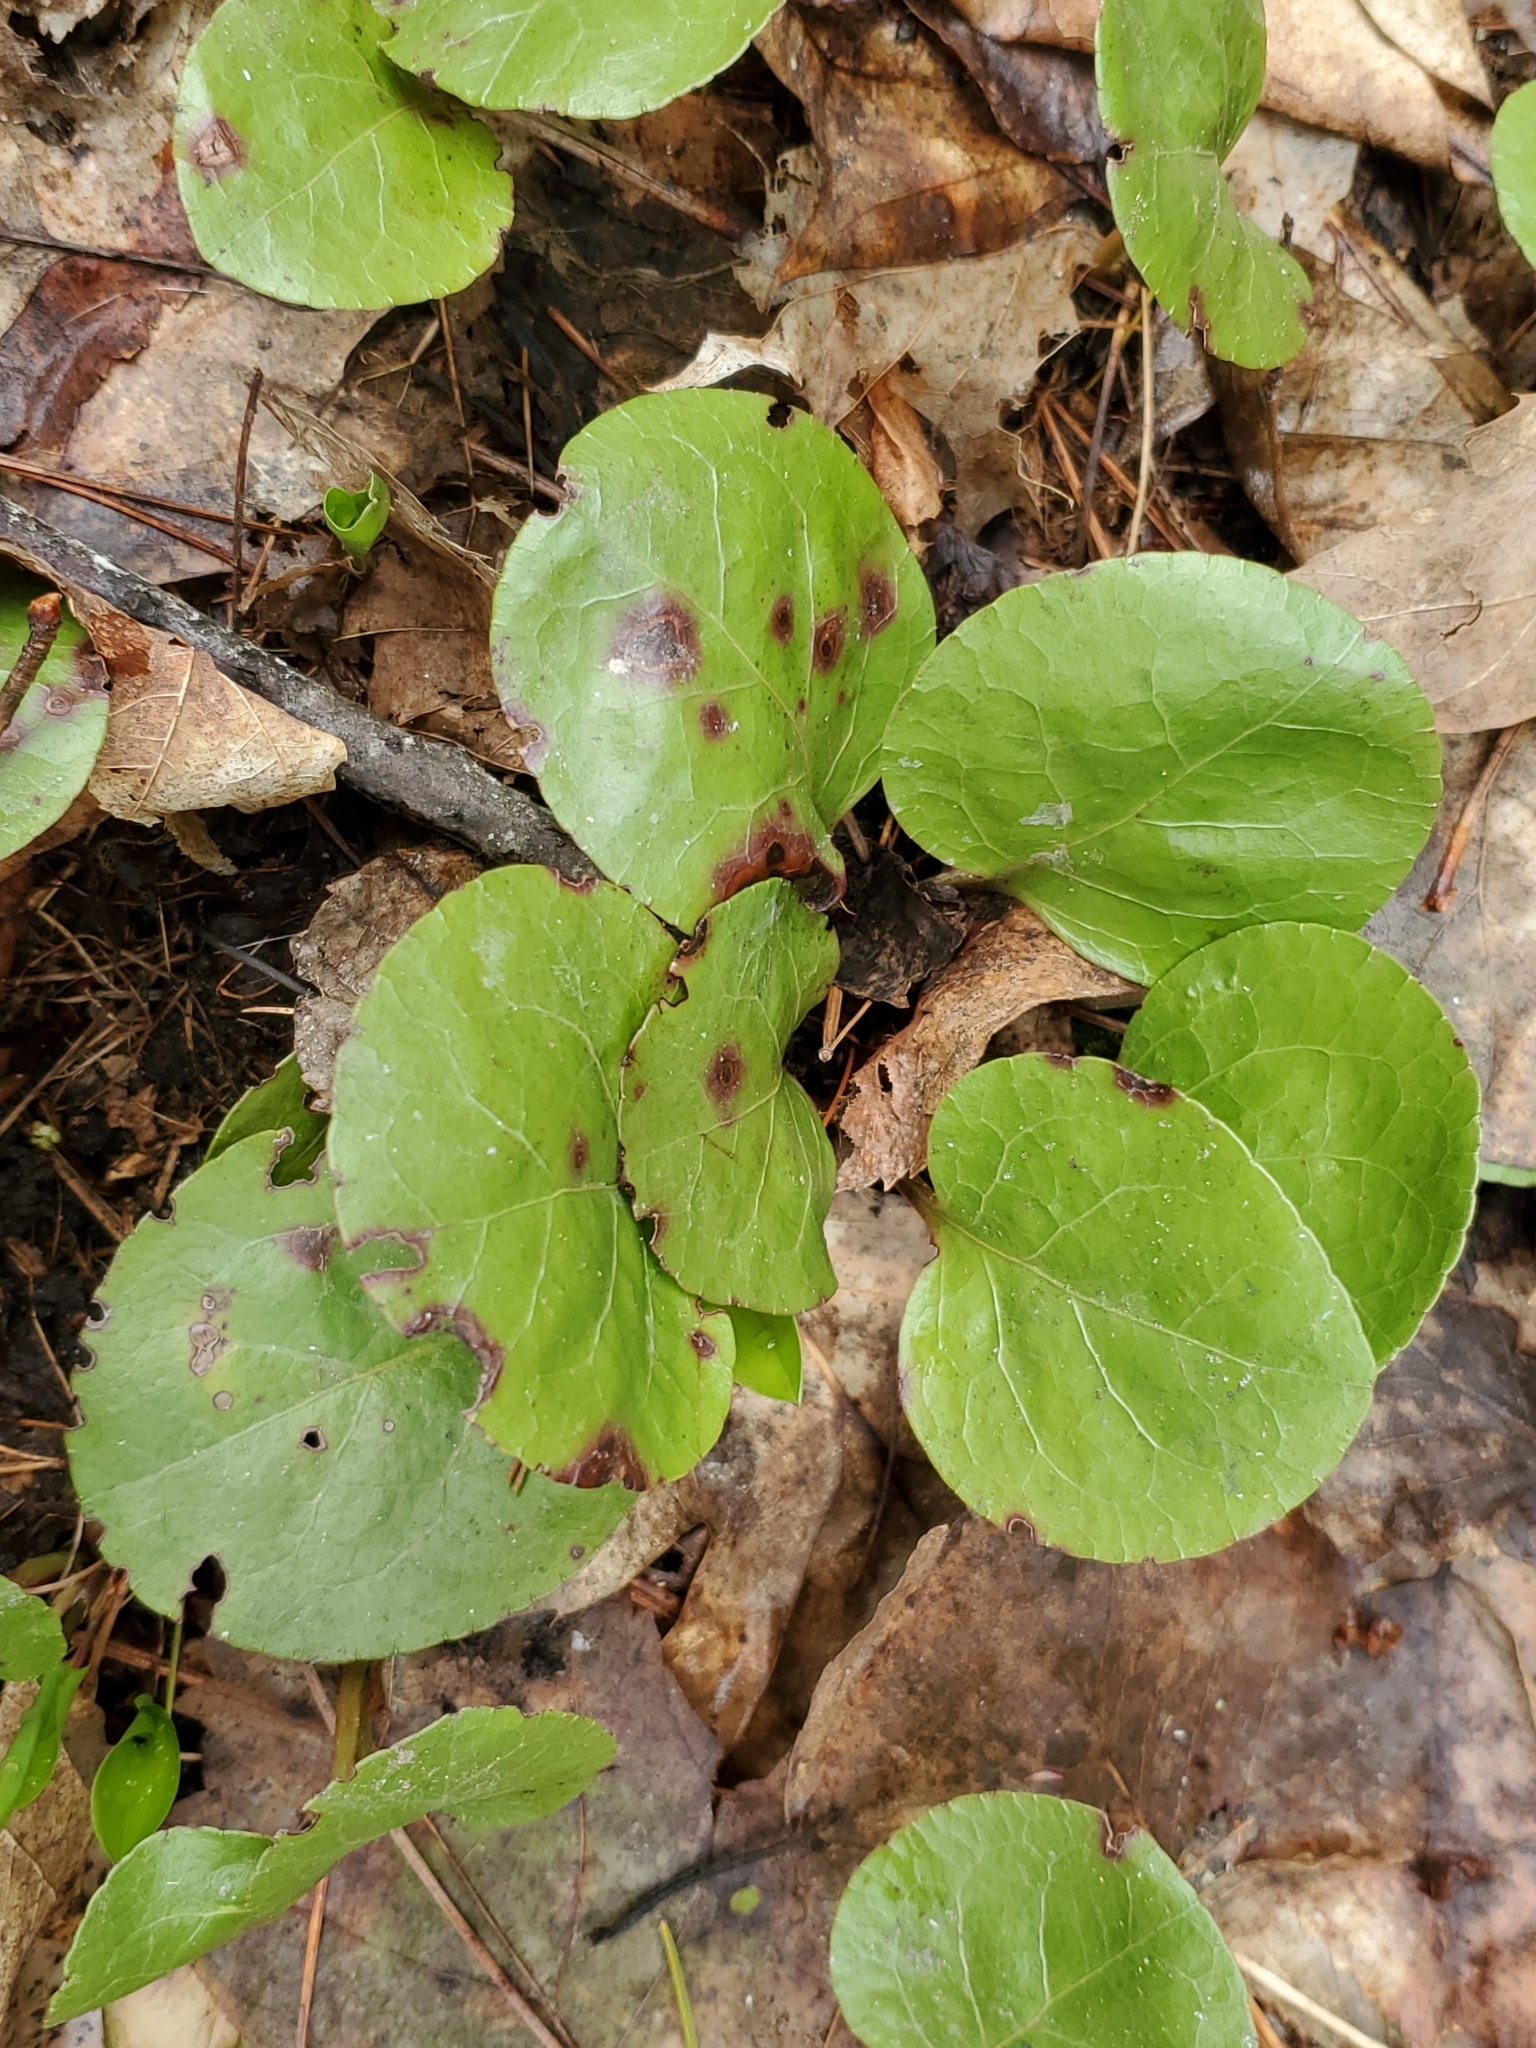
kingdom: Plantae
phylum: Tracheophyta
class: Magnoliopsida
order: Ericales
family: Ericaceae
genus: Pyrola
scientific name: Pyrola asarifolia
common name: Bog wintergreen
